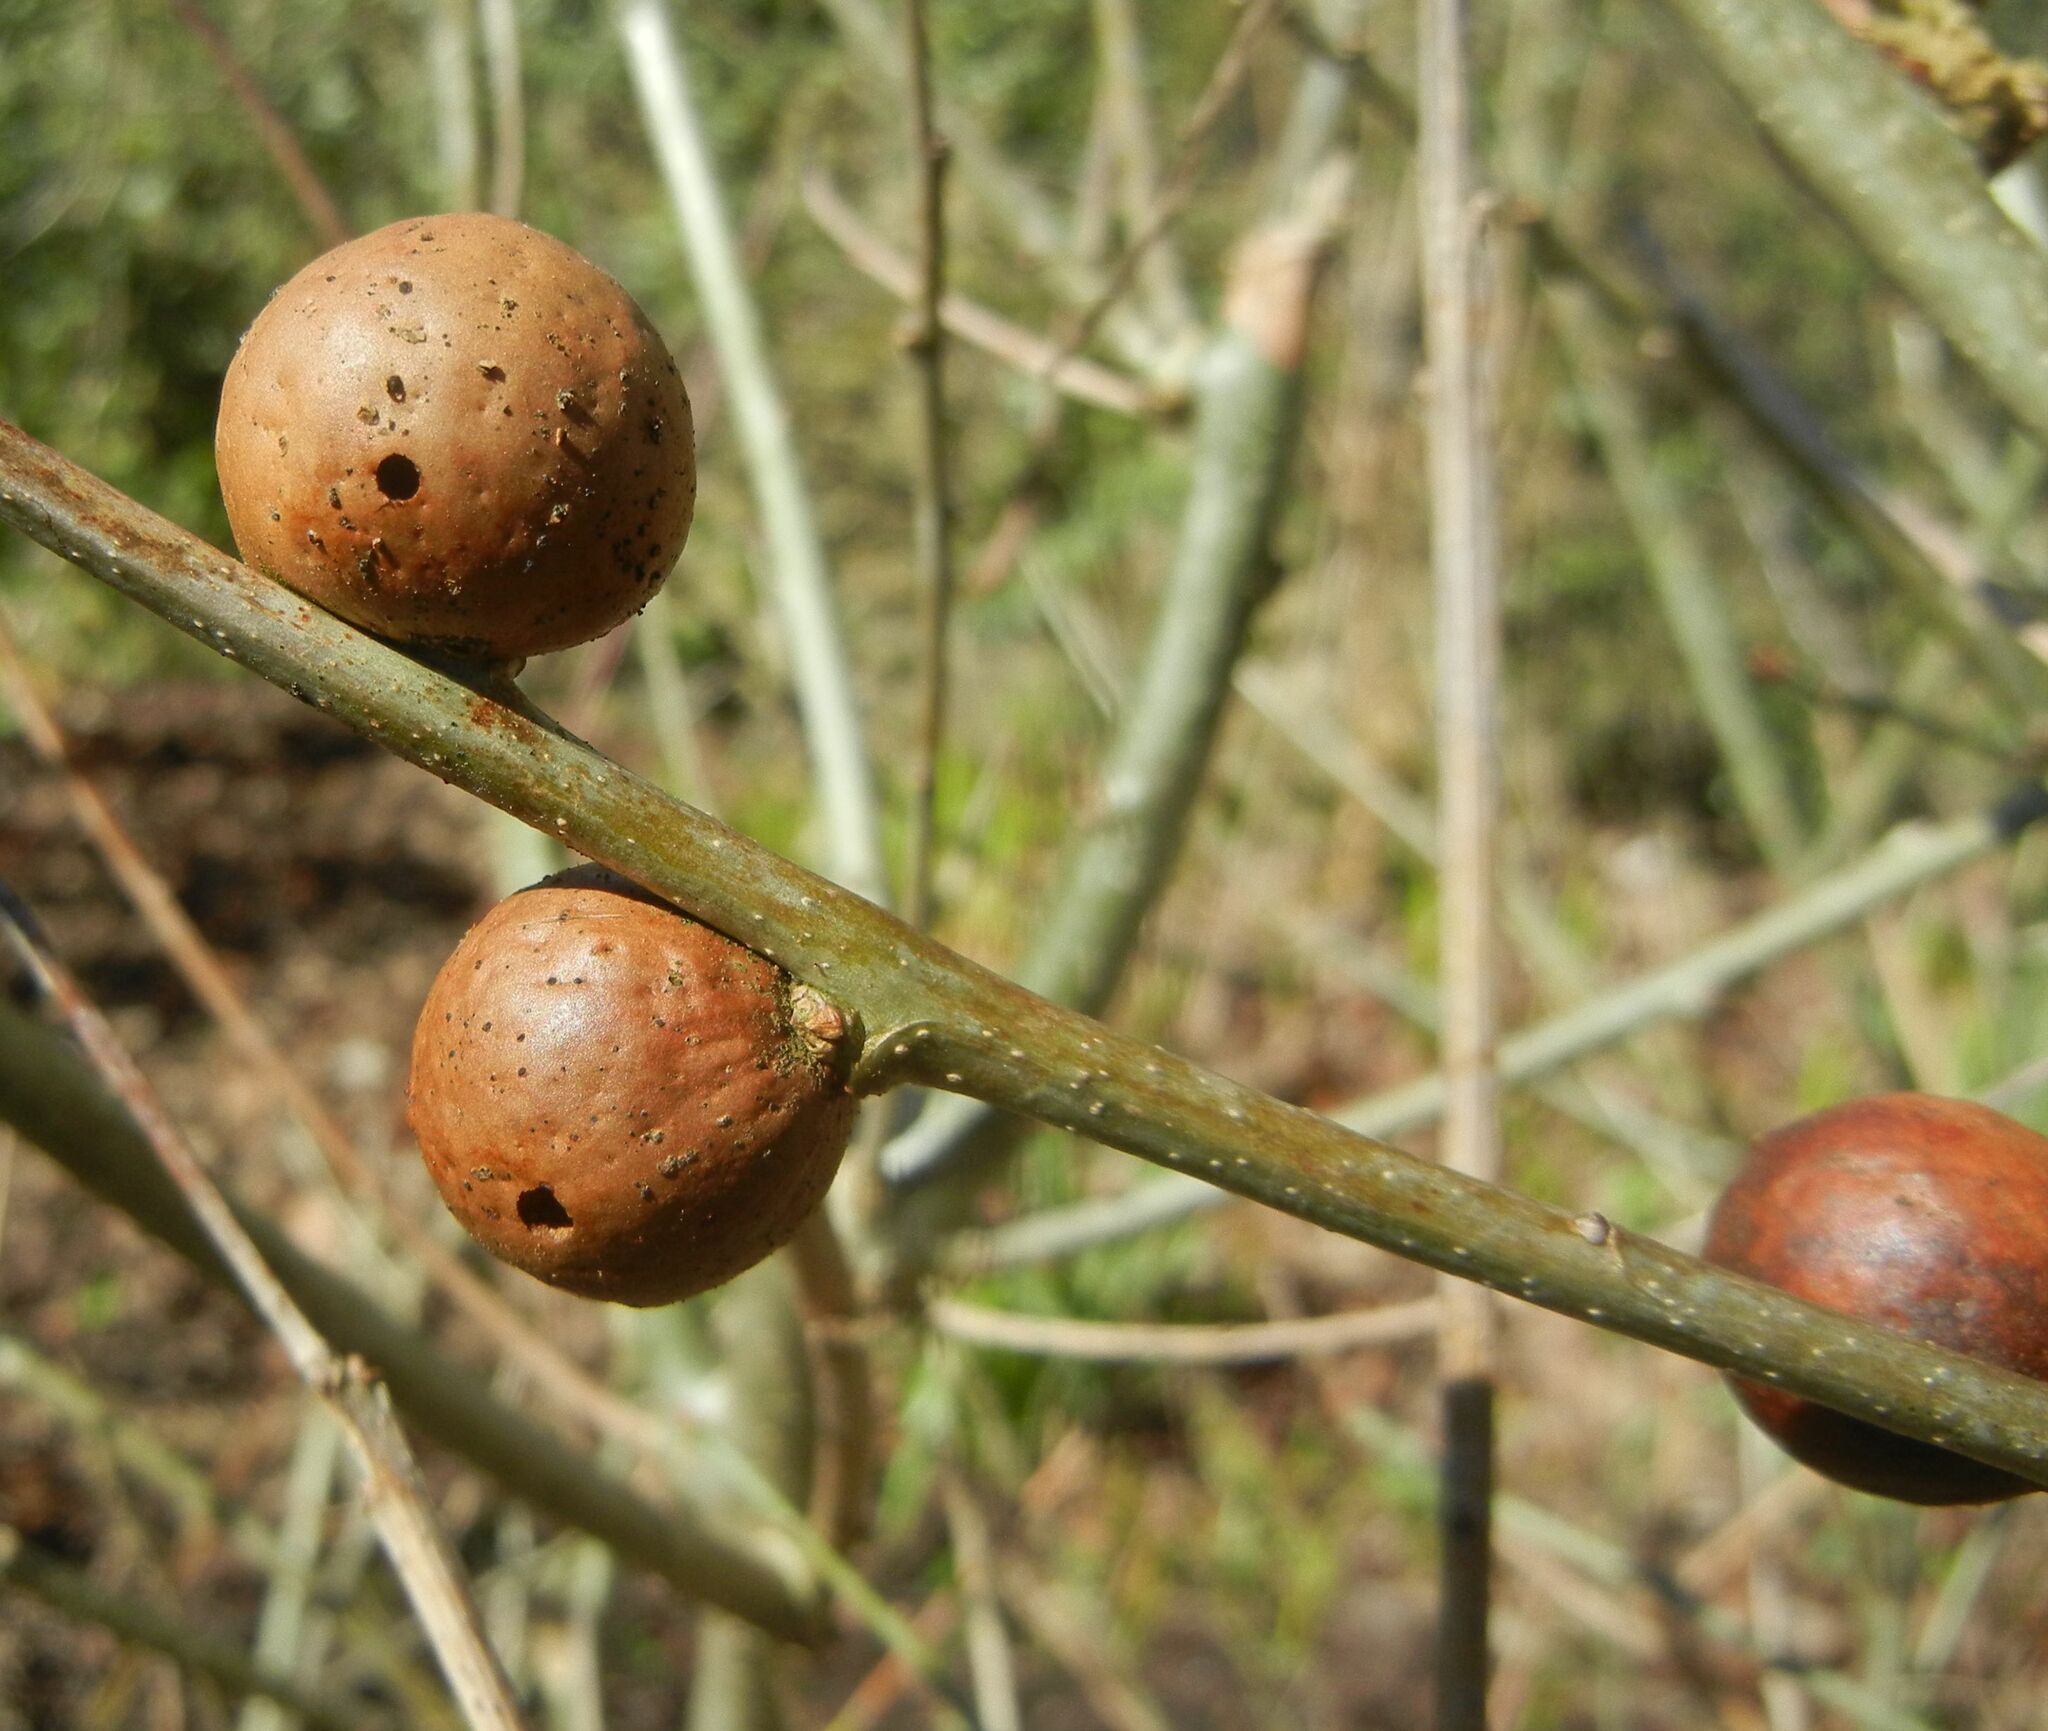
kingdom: Animalia
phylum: Arthropoda
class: Insecta
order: Hymenoptera
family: Cynipidae
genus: Andricus
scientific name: Andricus kollari
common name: Marble gall
